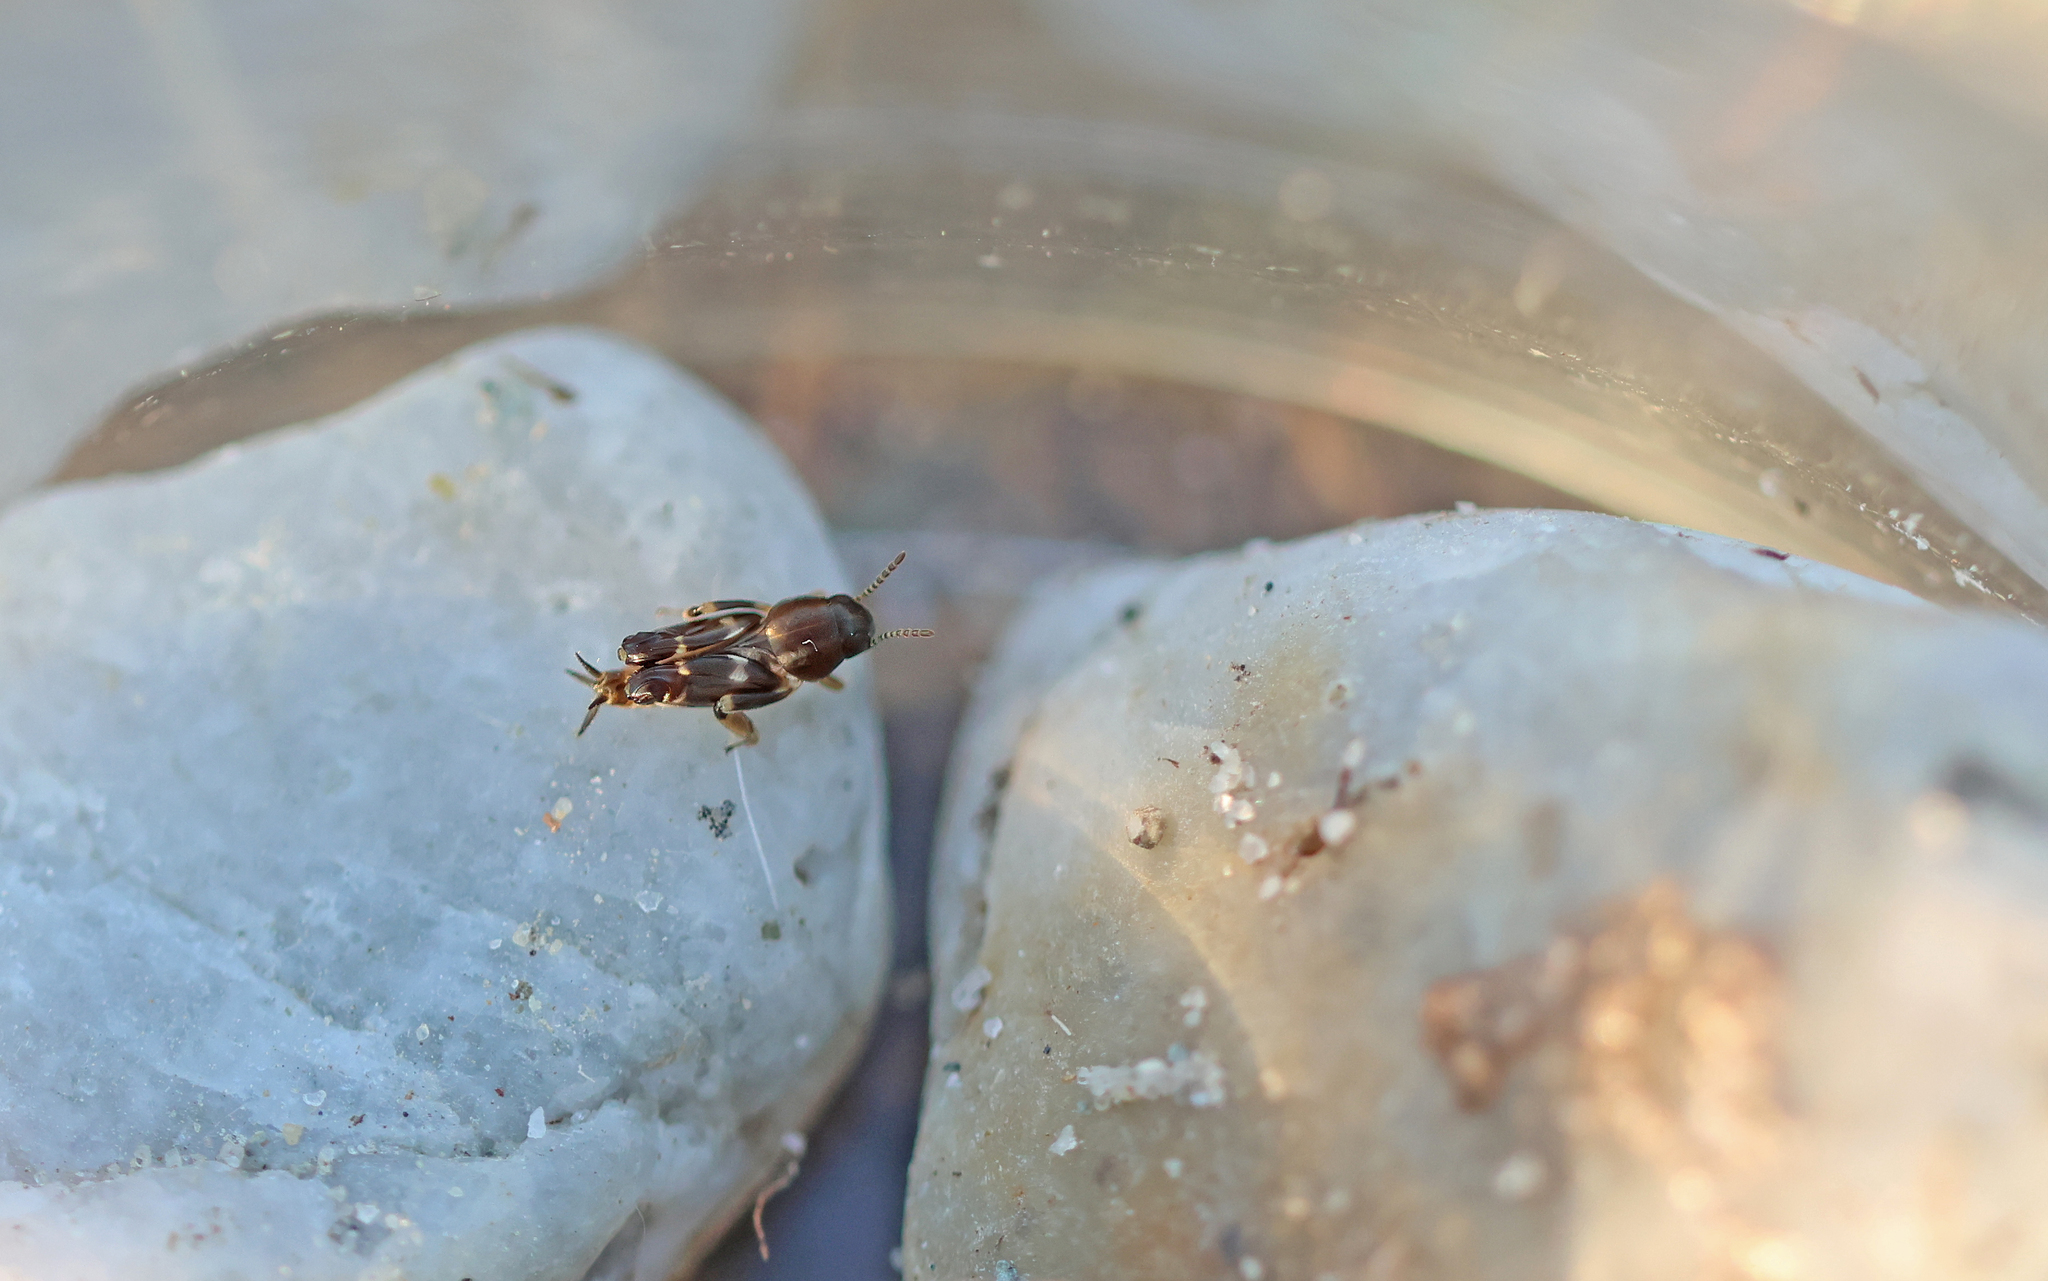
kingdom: Animalia
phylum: Arthropoda
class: Insecta
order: Orthoptera
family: Tridactylidae
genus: Xya
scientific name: Xya pfaendleri
